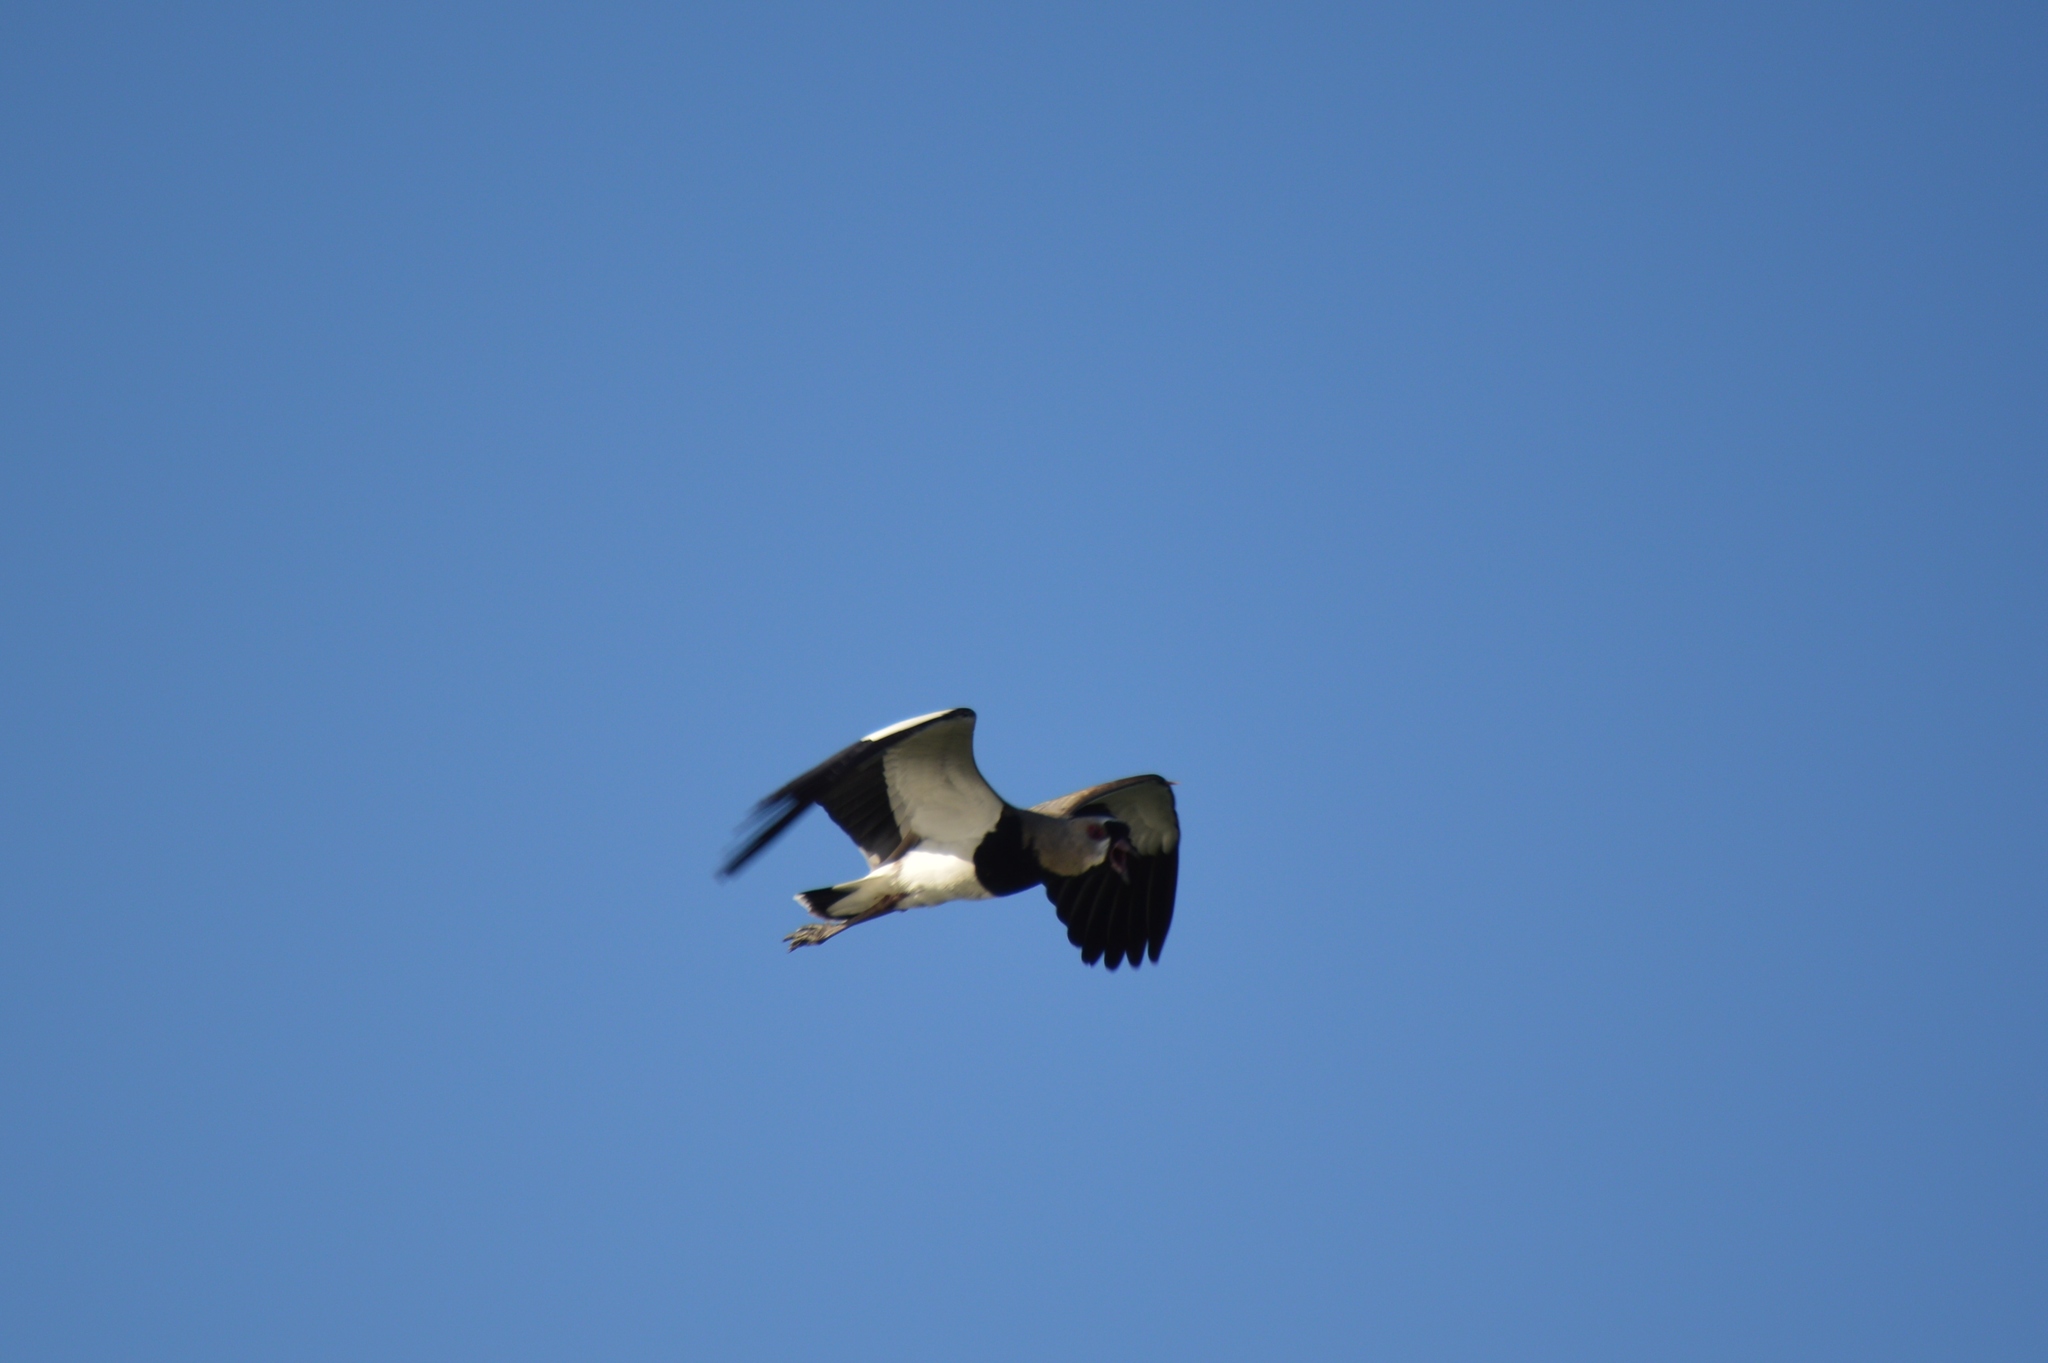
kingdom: Animalia
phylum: Chordata
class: Aves
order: Charadriiformes
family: Charadriidae
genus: Vanellus
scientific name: Vanellus chilensis
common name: Southern lapwing
